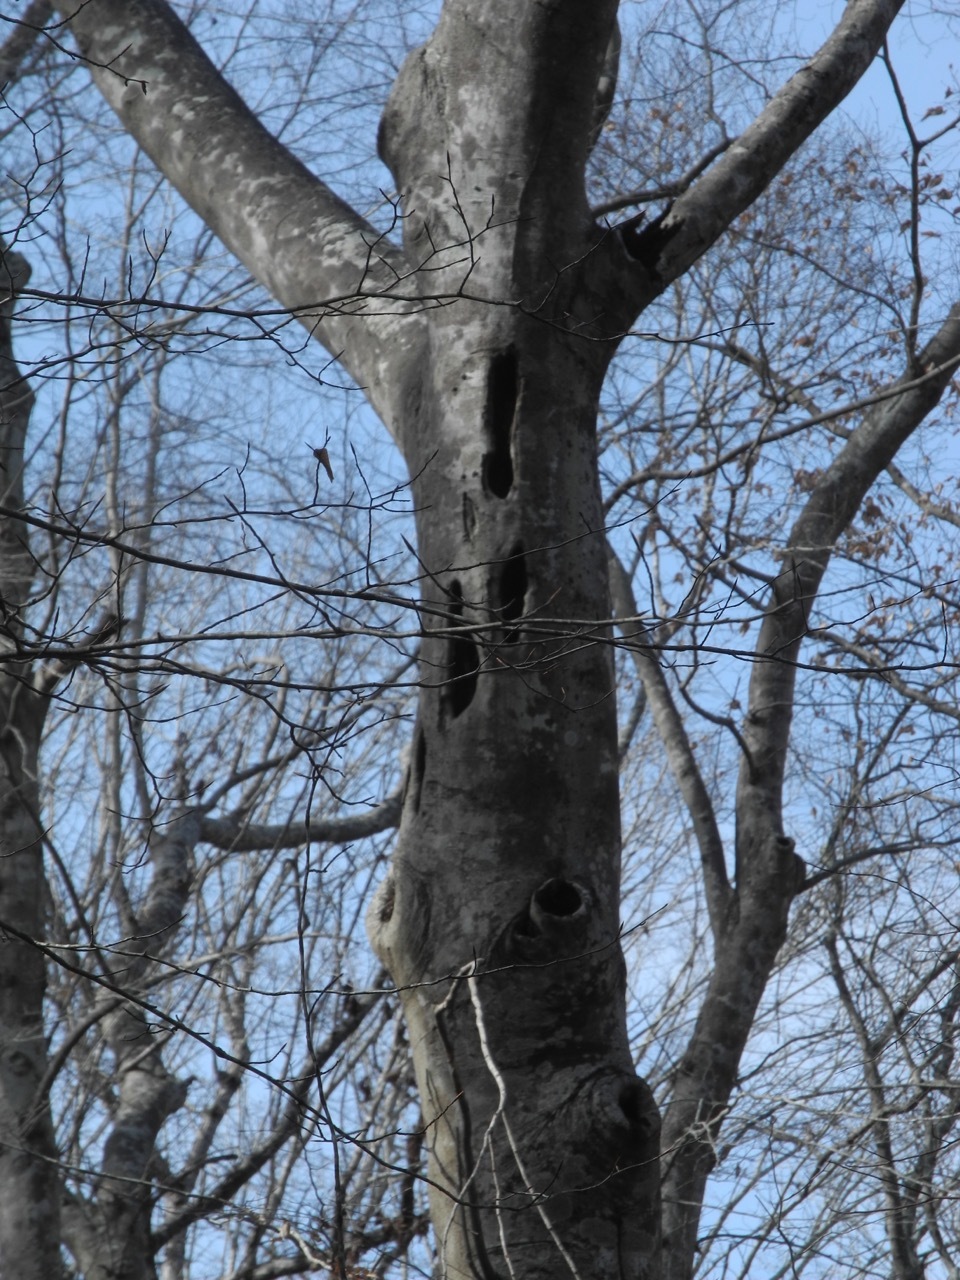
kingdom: Plantae
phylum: Tracheophyta
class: Magnoliopsida
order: Fagales
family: Fagaceae
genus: Fagus
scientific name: Fagus grandifolia
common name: American beech
